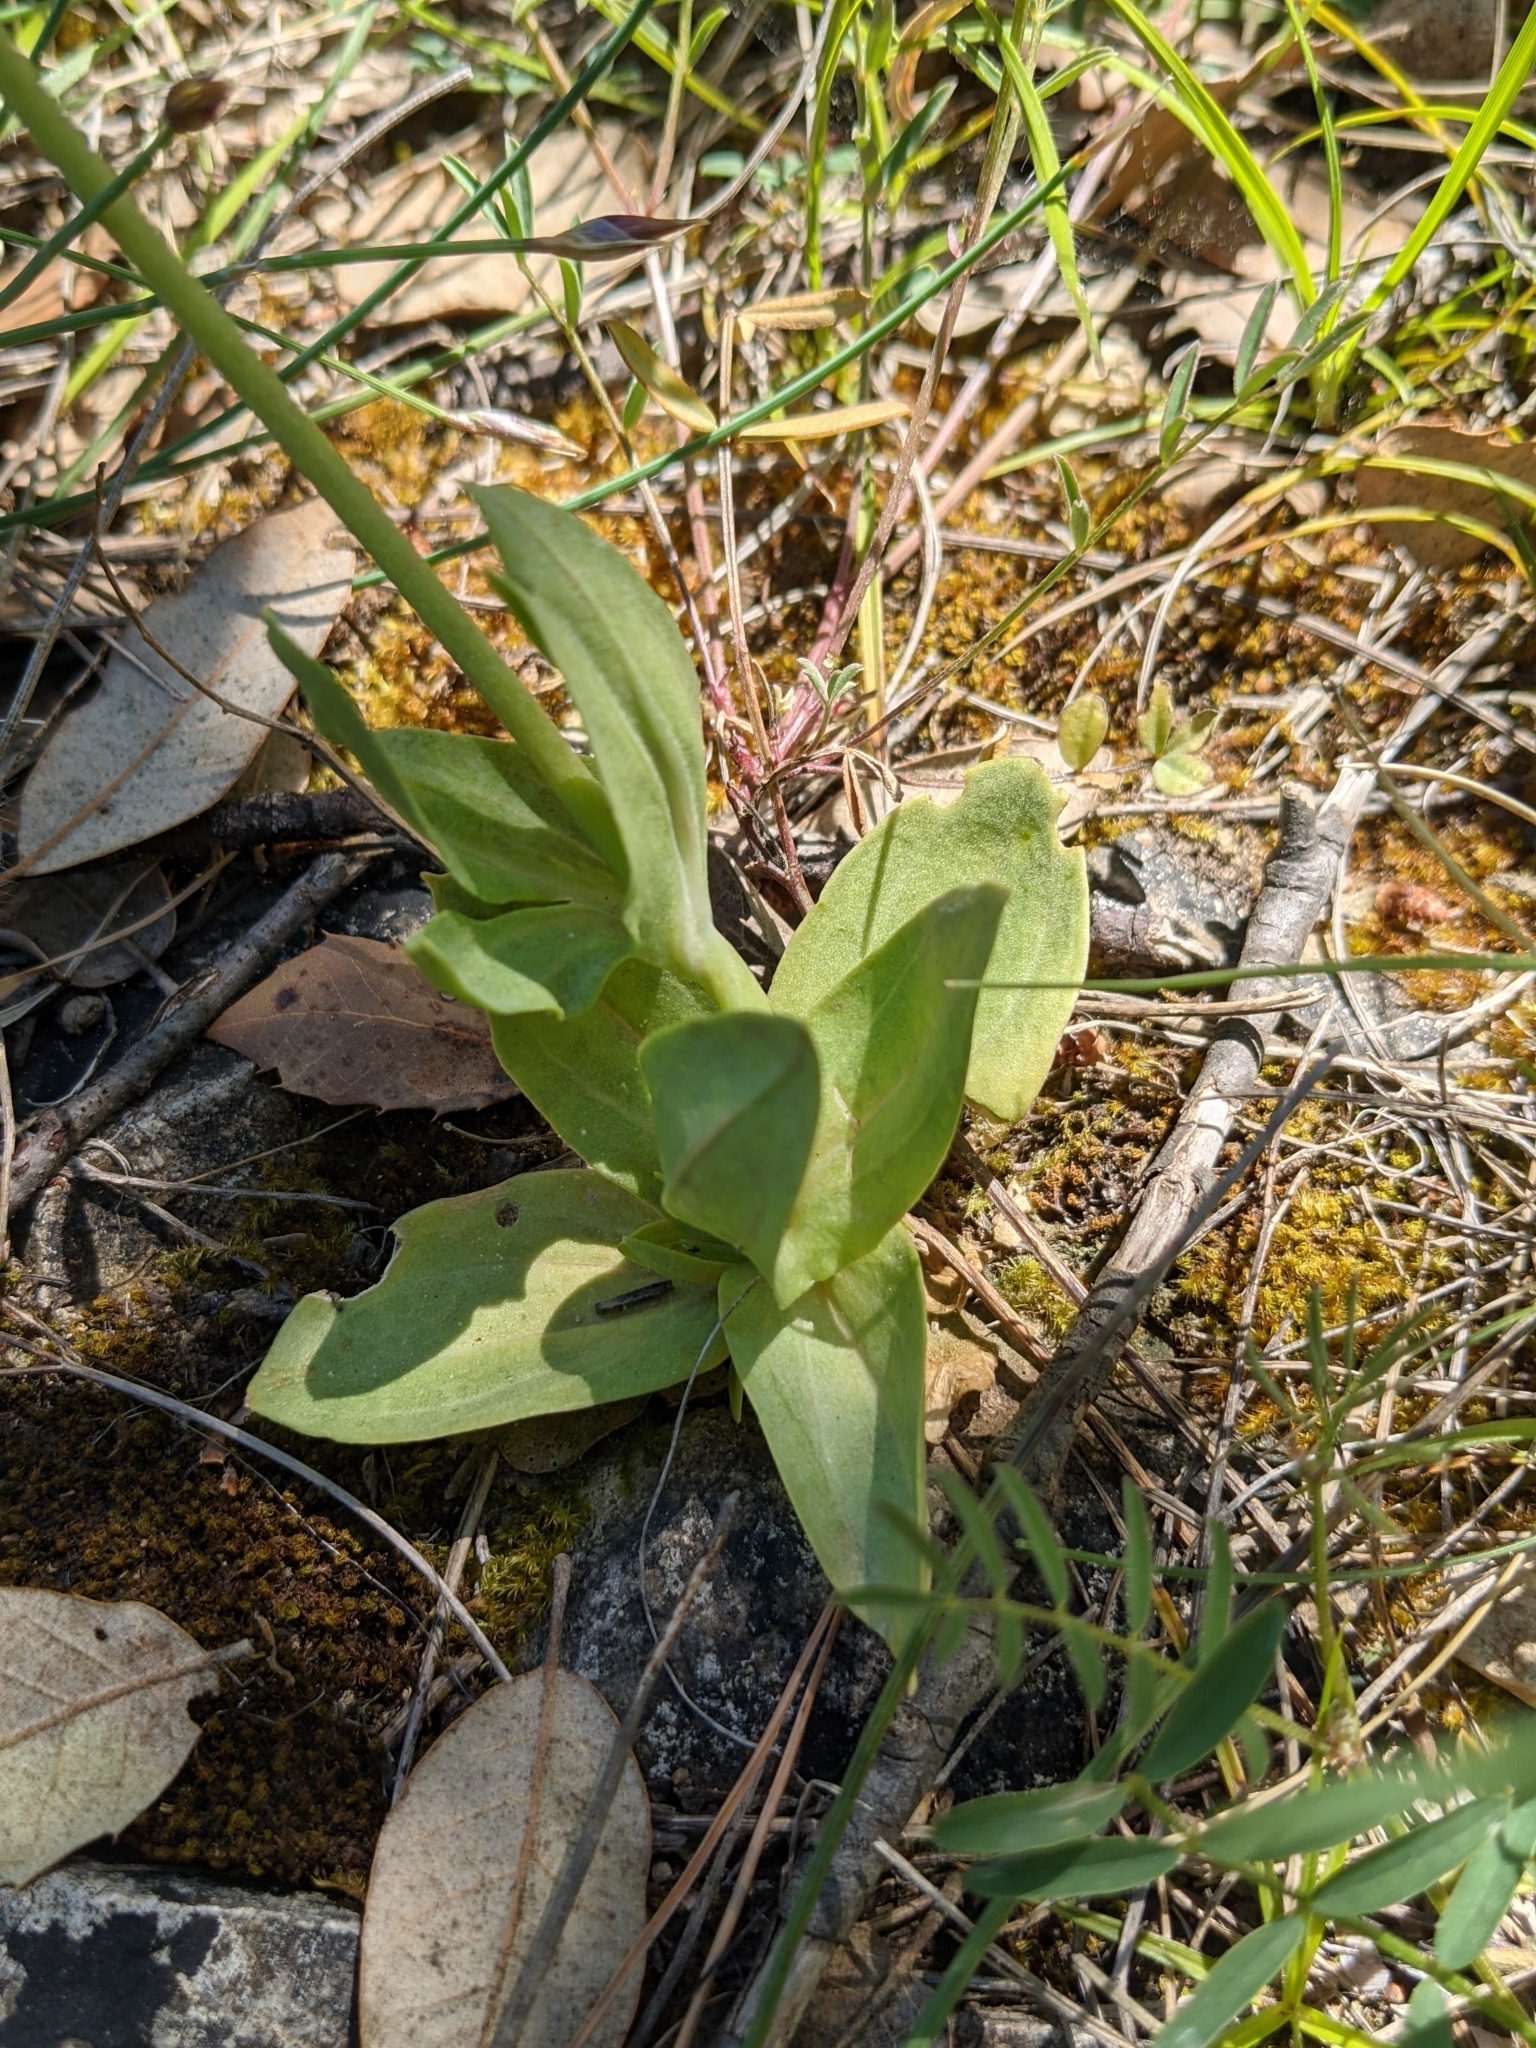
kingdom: Plantae
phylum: Tracheophyta
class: Magnoliopsida
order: Gentianales
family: Gentianaceae
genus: Blackstonia
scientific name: Blackstonia perfoliata
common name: Yellow-wort
